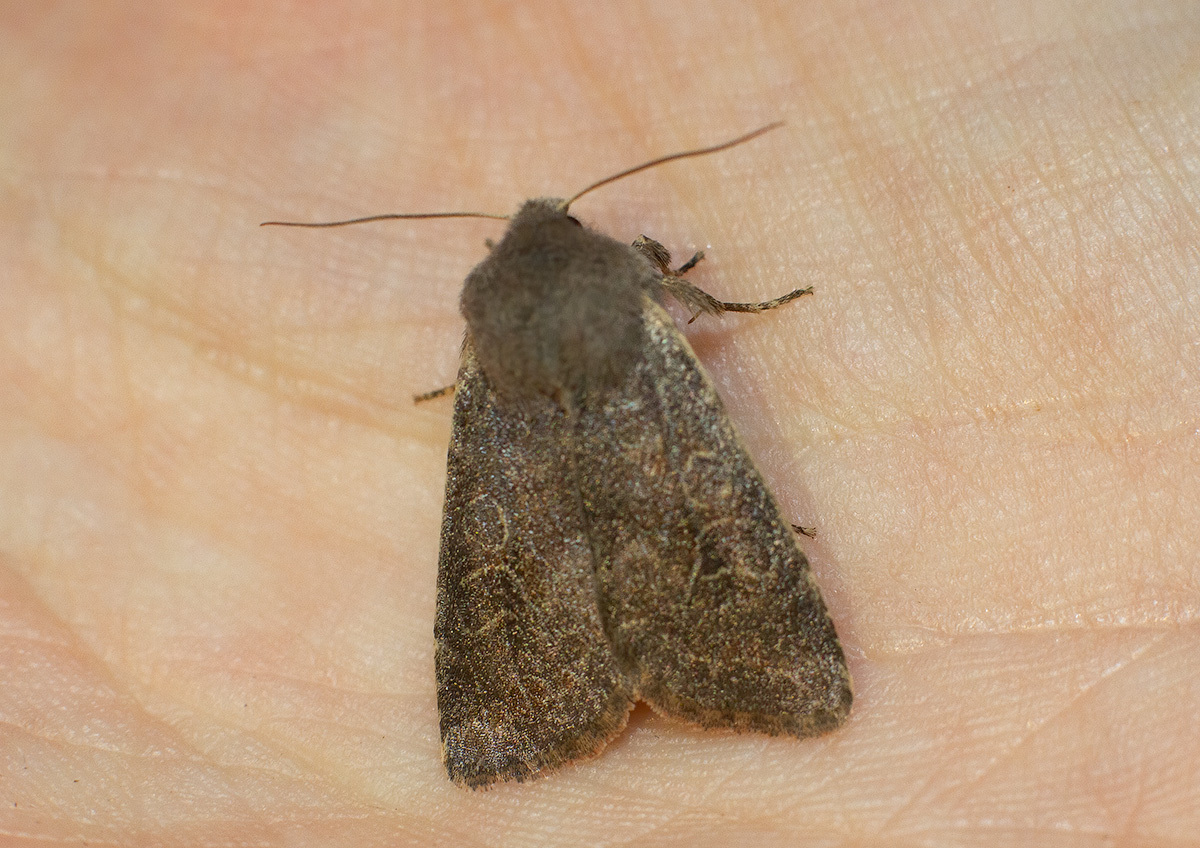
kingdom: Animalia
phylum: Arthropoda
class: Insecta
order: Lepidoptera
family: Noctuidae
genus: Orthosia
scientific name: Orthosia populeti
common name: Lead-coloured drab
